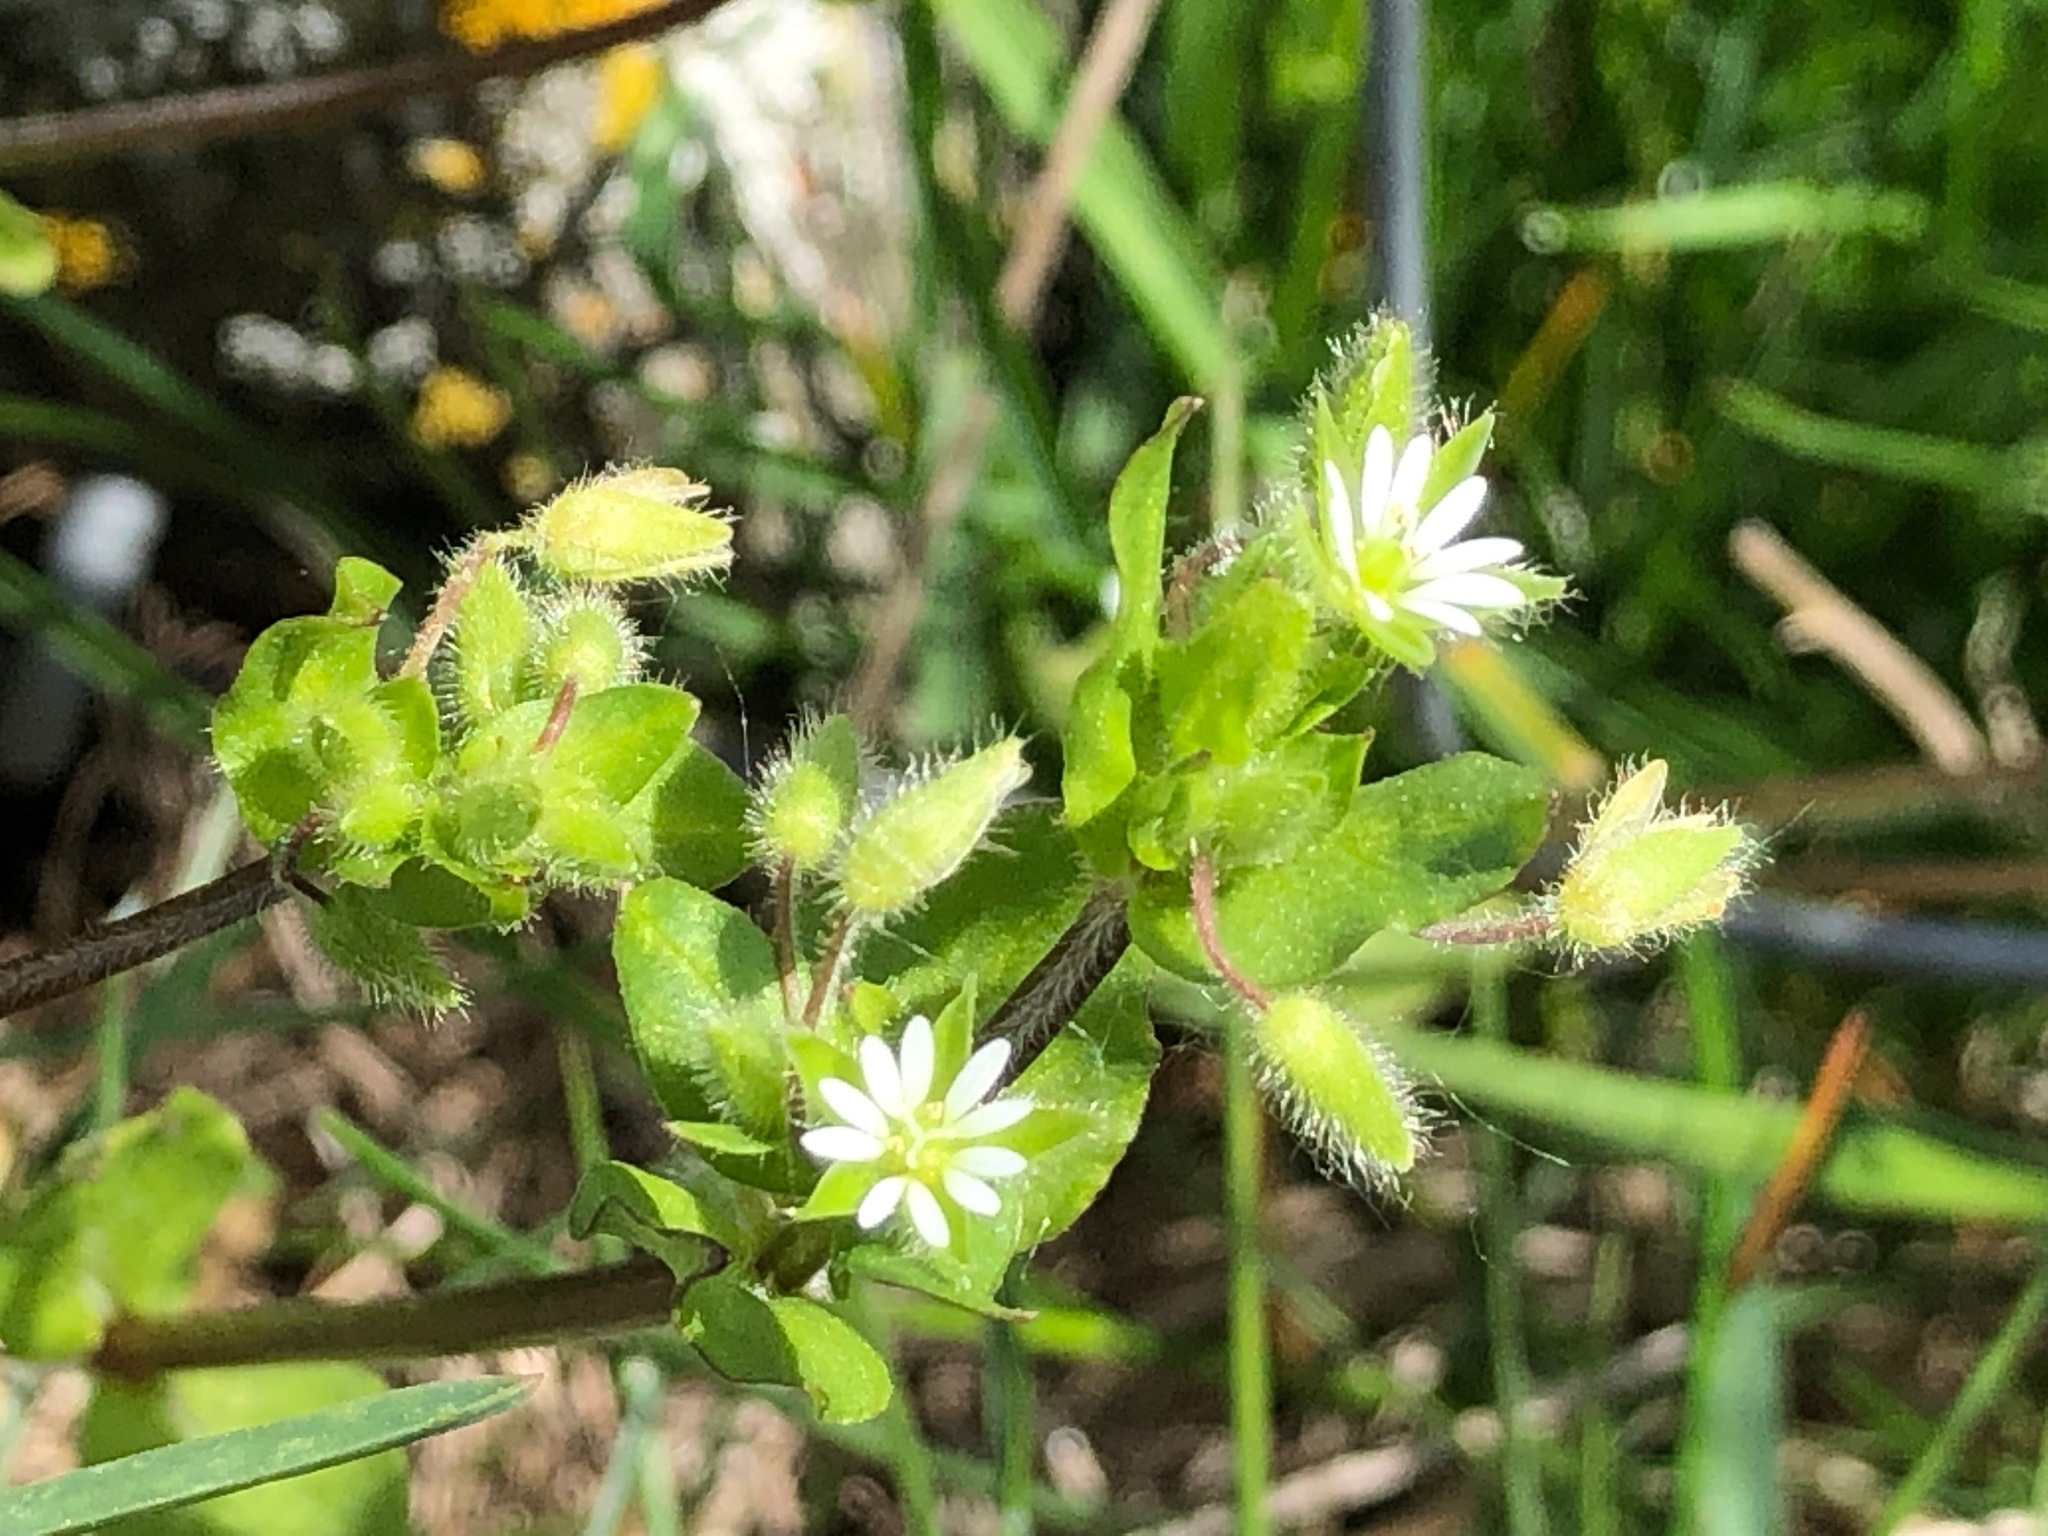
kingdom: Plantae
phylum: Tracheophyta
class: Magnoliopsida
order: Caryophyllales
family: Caryophyllaceae
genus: Stellaria
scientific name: Stellaria media
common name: Common chickweed
